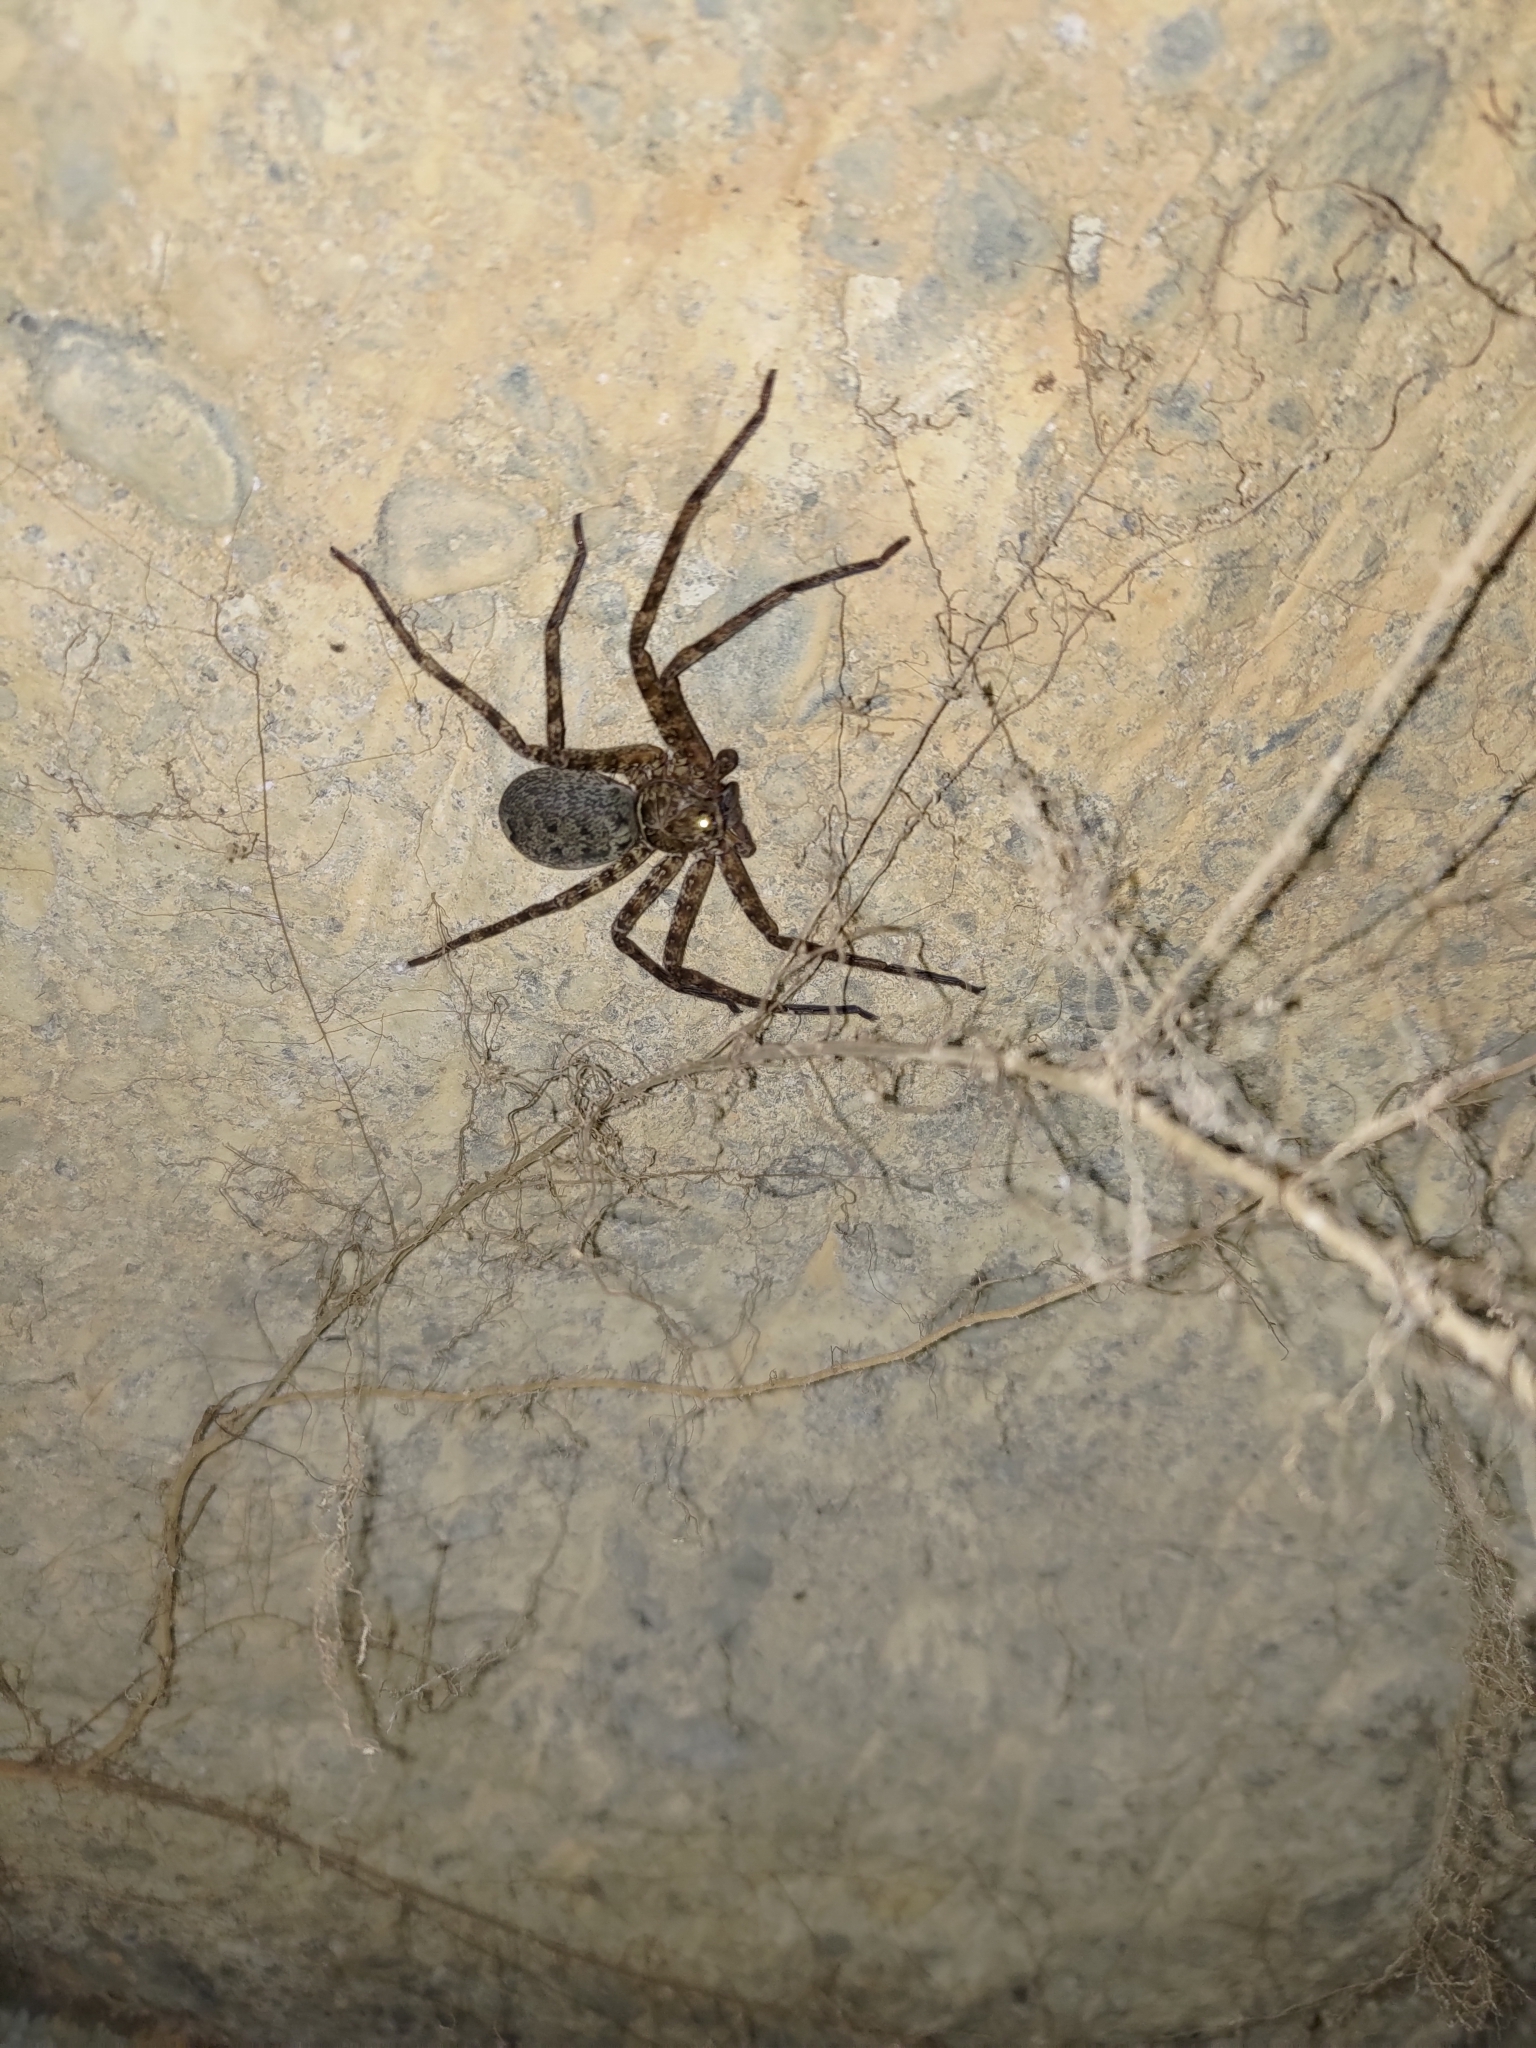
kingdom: Animalia
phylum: Arthropoda
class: Arachnida
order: Araneae
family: Sparassidae
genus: Heteropoda
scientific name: Heteropoda venatoria
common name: Huntsman spider
